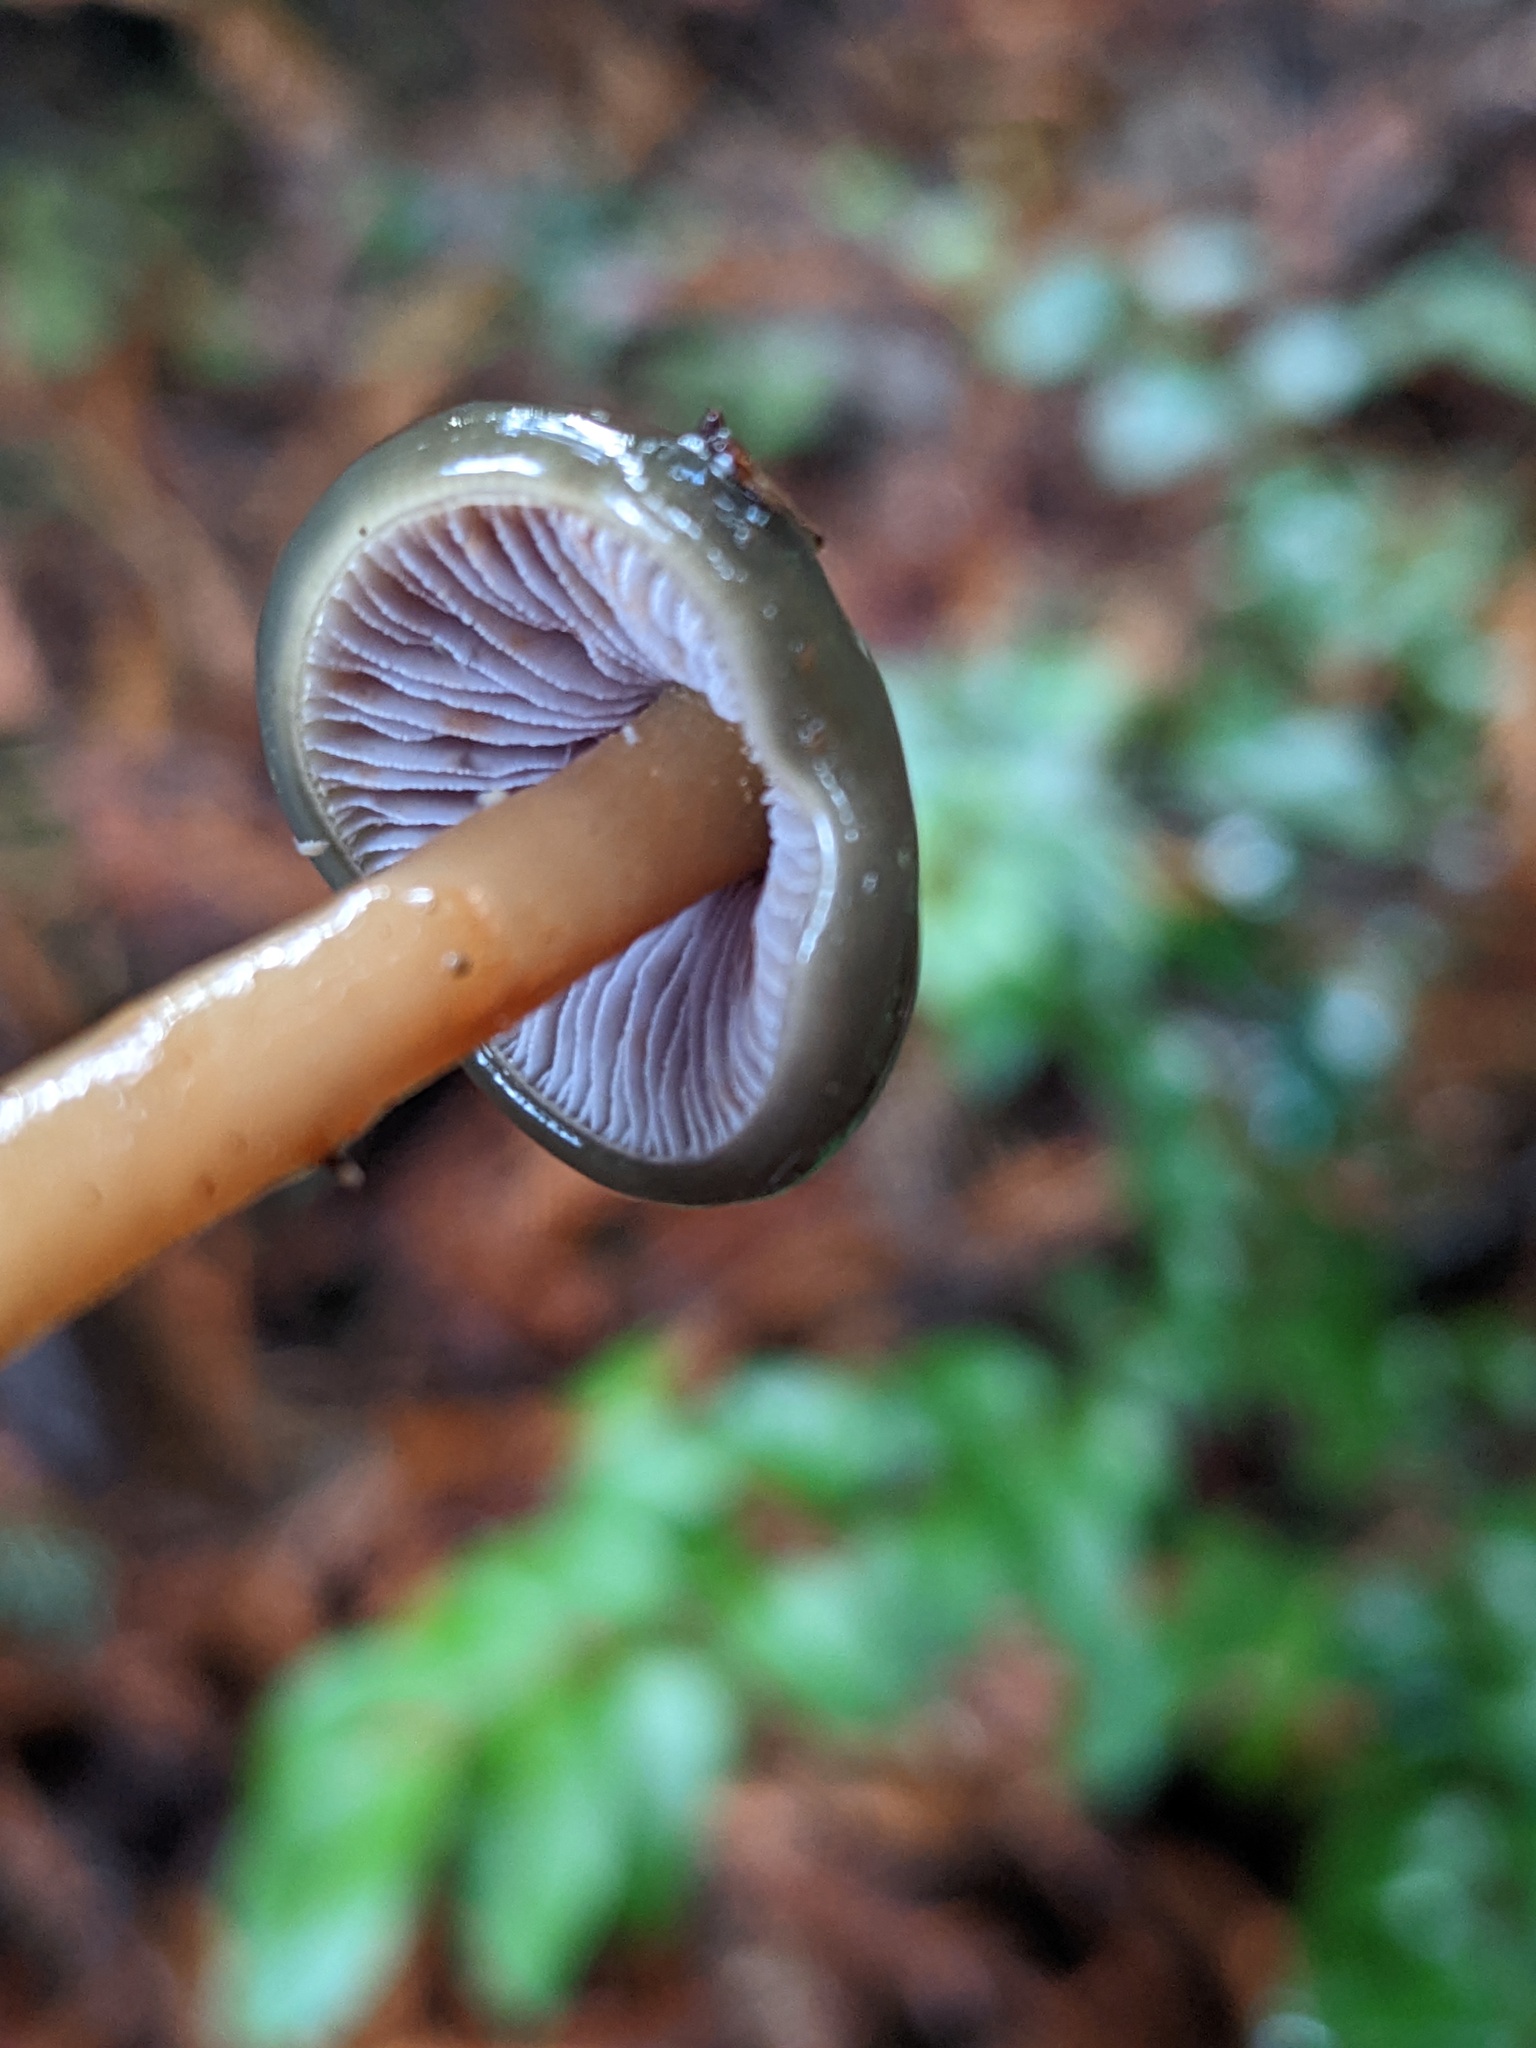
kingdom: Fungi
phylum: Basidiomycota
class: Agaricomycetes
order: Agaricales
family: Hymenogastraceae
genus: Phaeocollybia
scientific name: Phaeocollybia fallax
